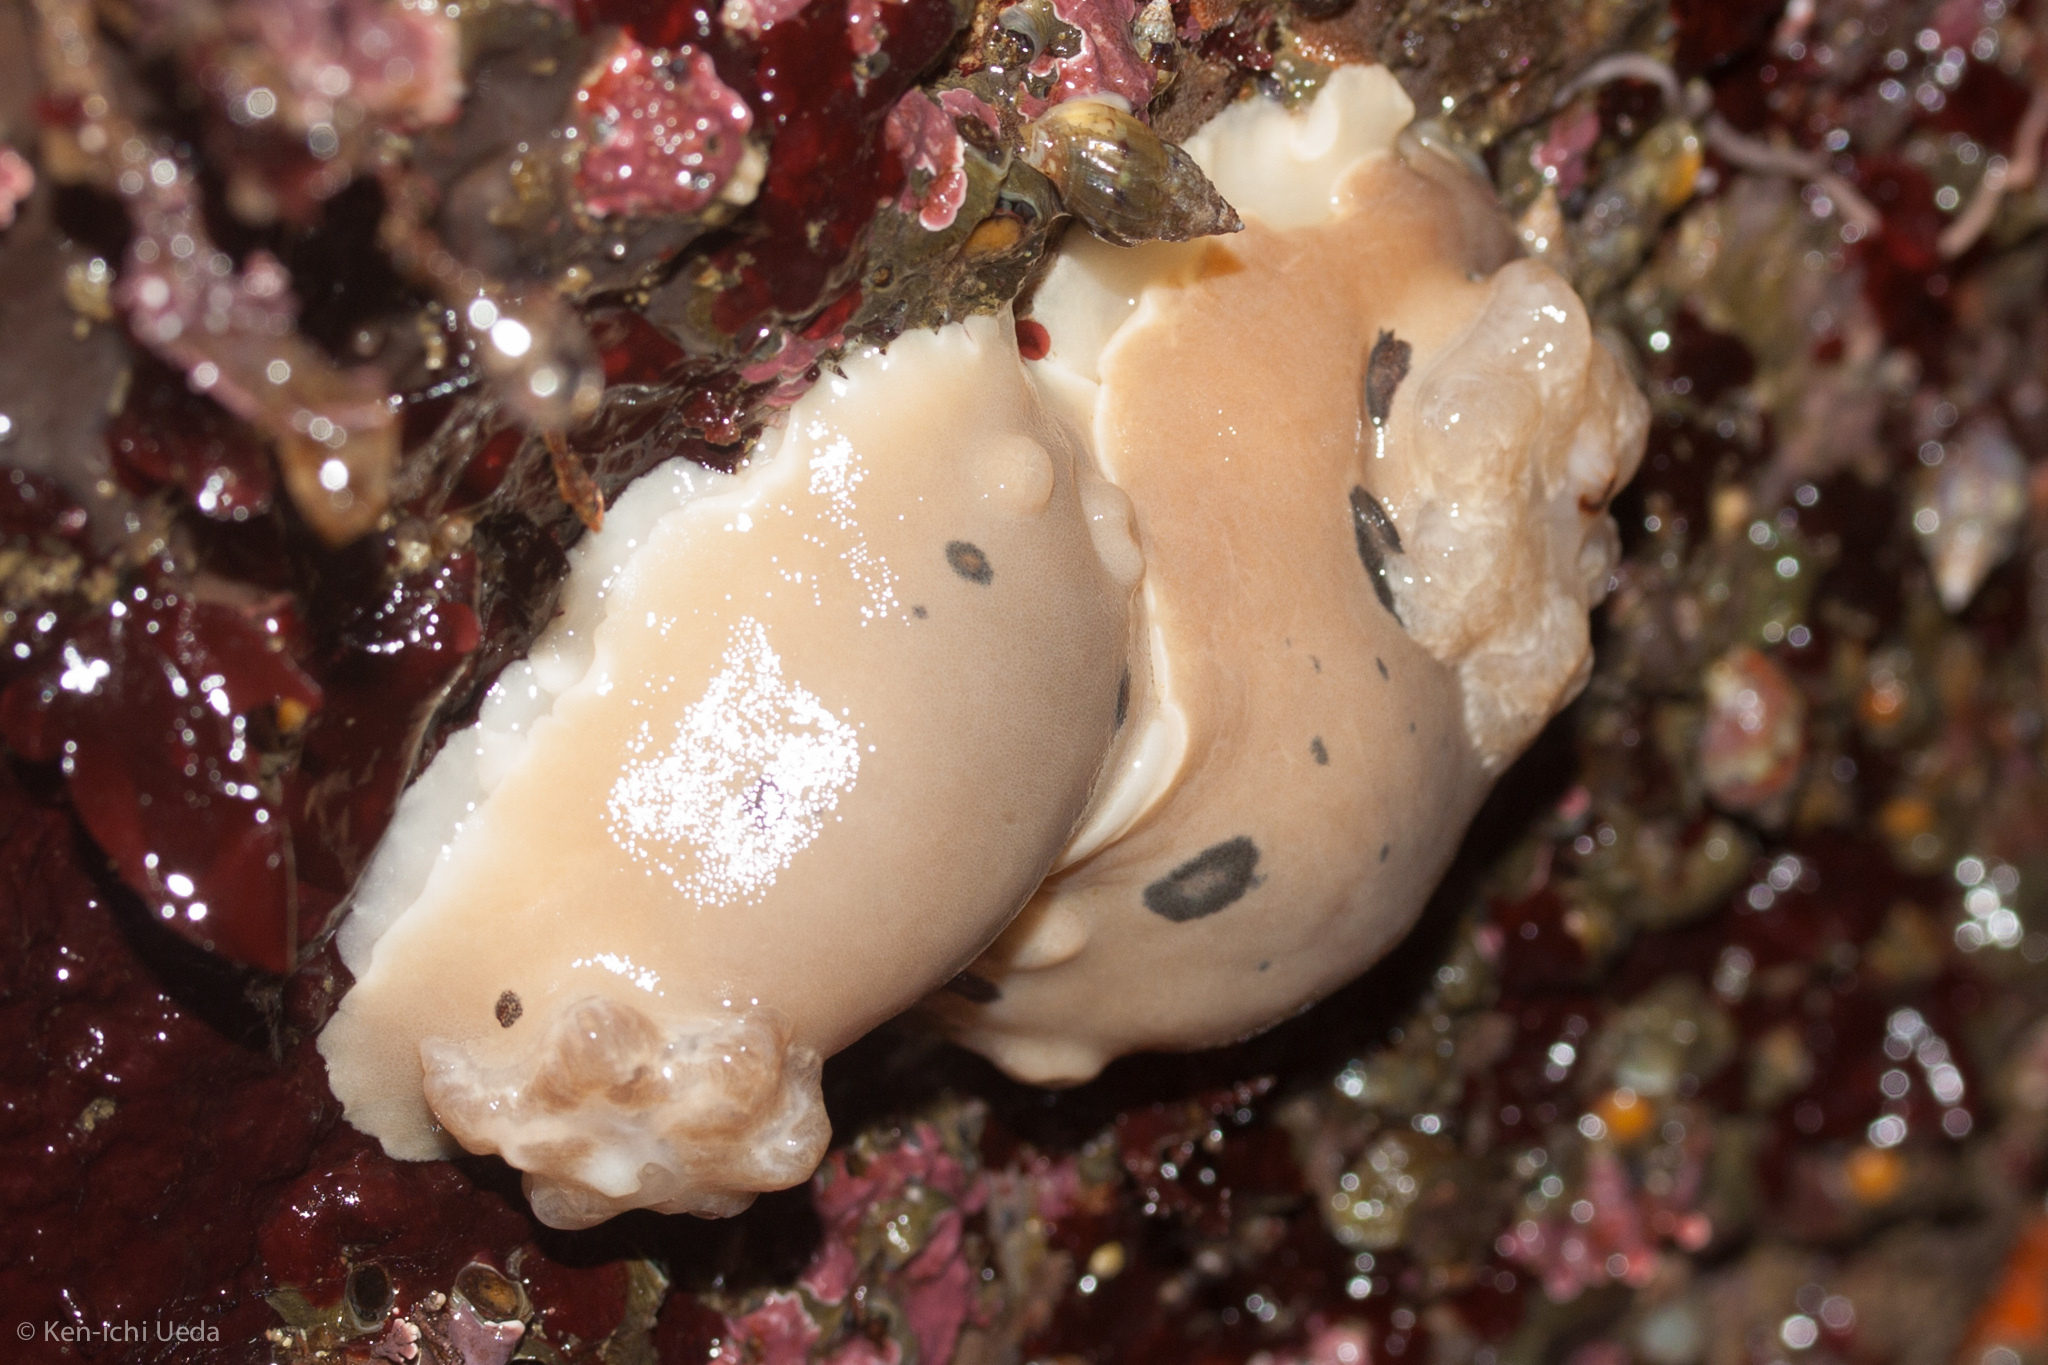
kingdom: Animalia
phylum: Mollusca
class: Gastropoda
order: Nudibranchia
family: Discodorididae
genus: Diaulula
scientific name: Diaulula sandiegensis
